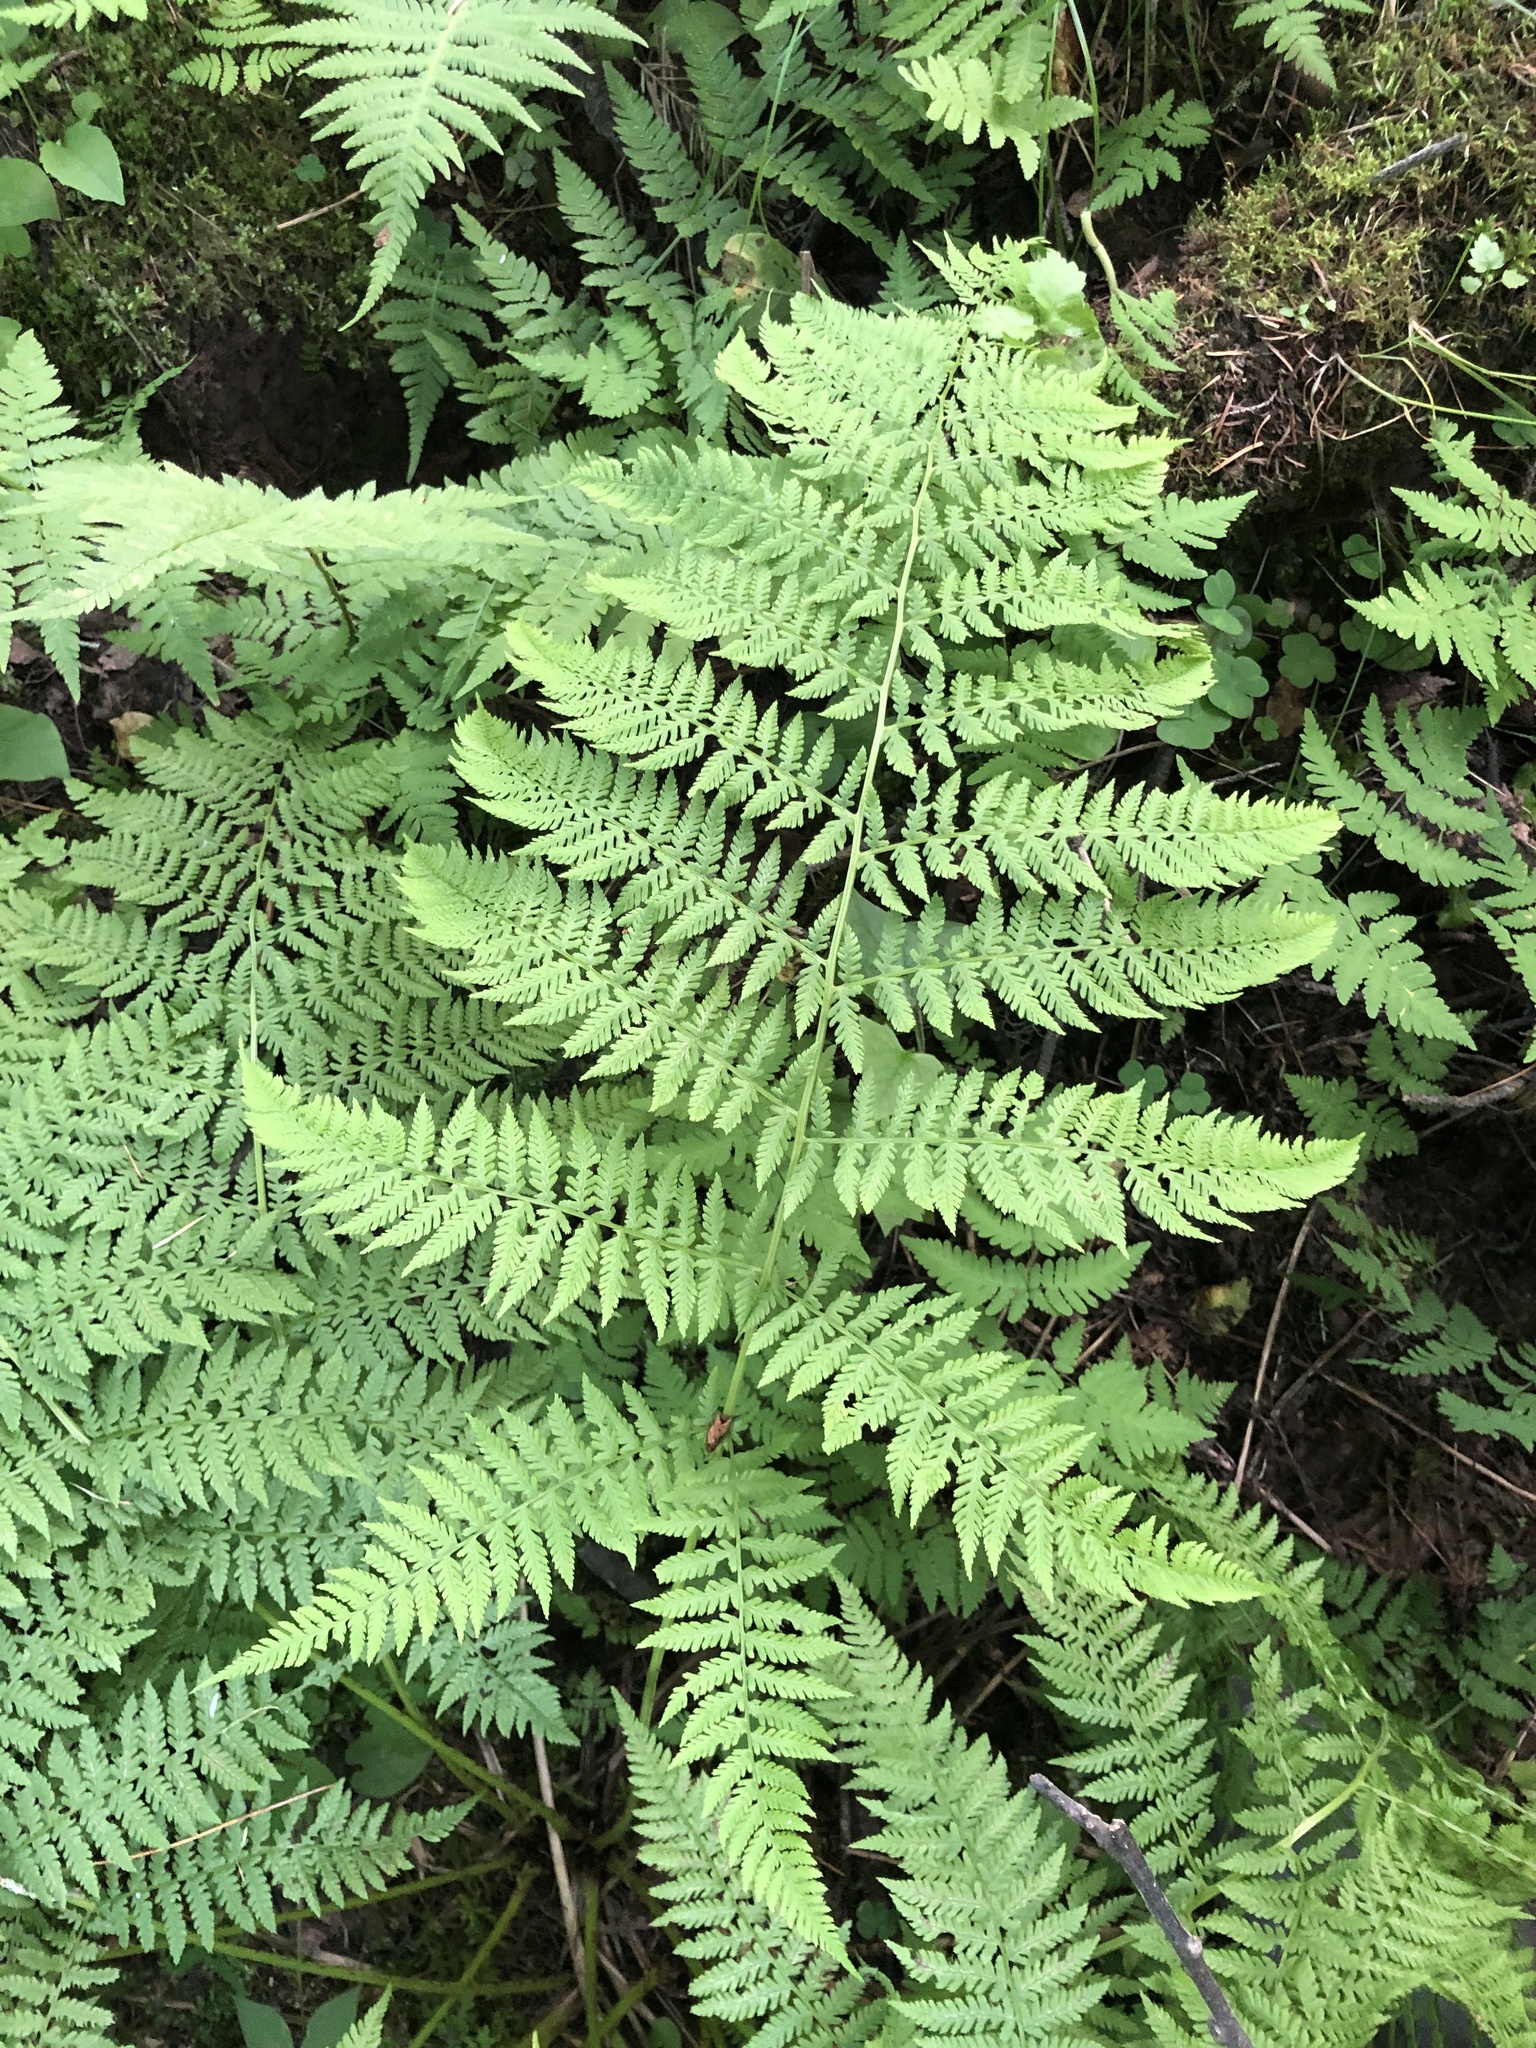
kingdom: Plantae
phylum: Tracheophyta
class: Polypodiopsida
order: Polypodiales
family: Athyriaceae
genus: Athyrium
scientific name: Athyrium filix-femina
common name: Lady fern
